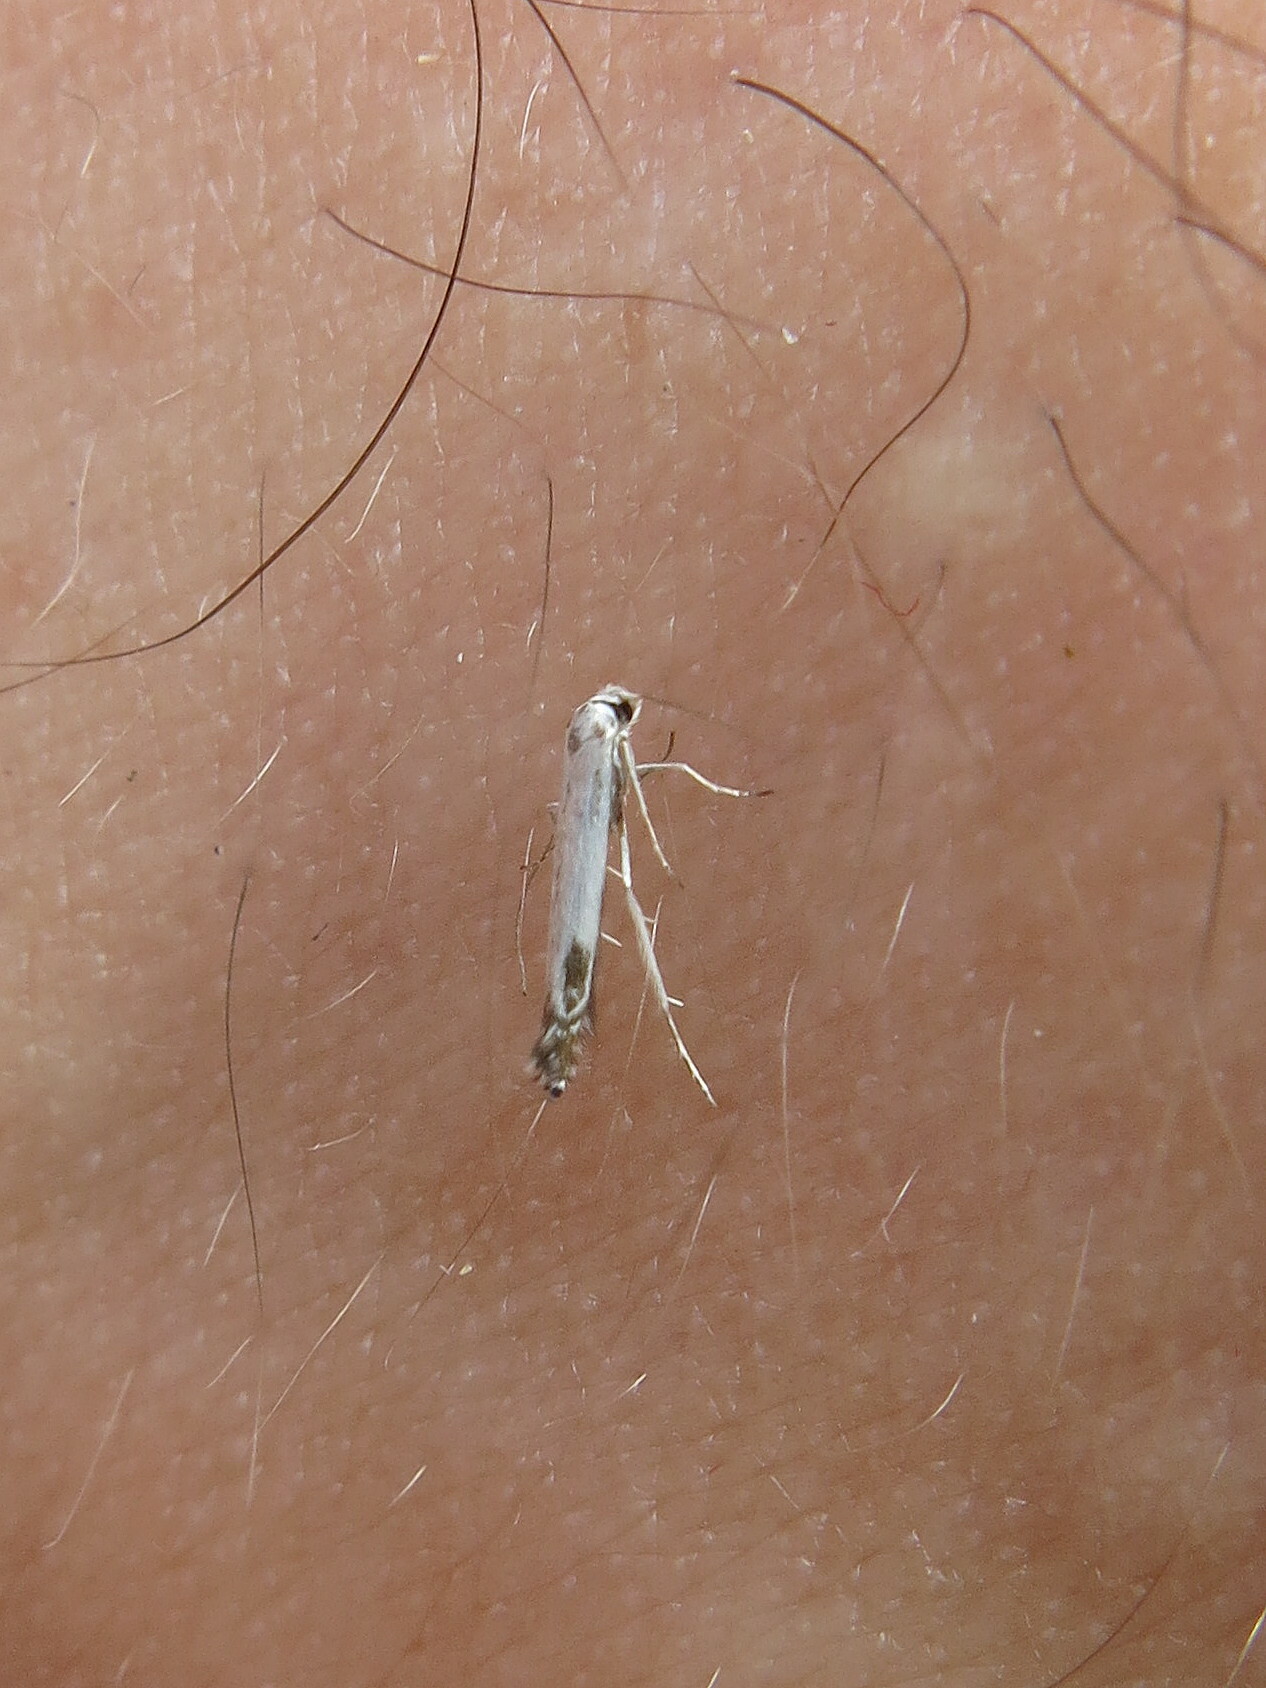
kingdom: Animalia
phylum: Arthropoda
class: Insecta
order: Lepidoptera
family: Lyonetiidae
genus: Lyonetia
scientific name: Lyonetia clerkella
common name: Apple leaf miner
